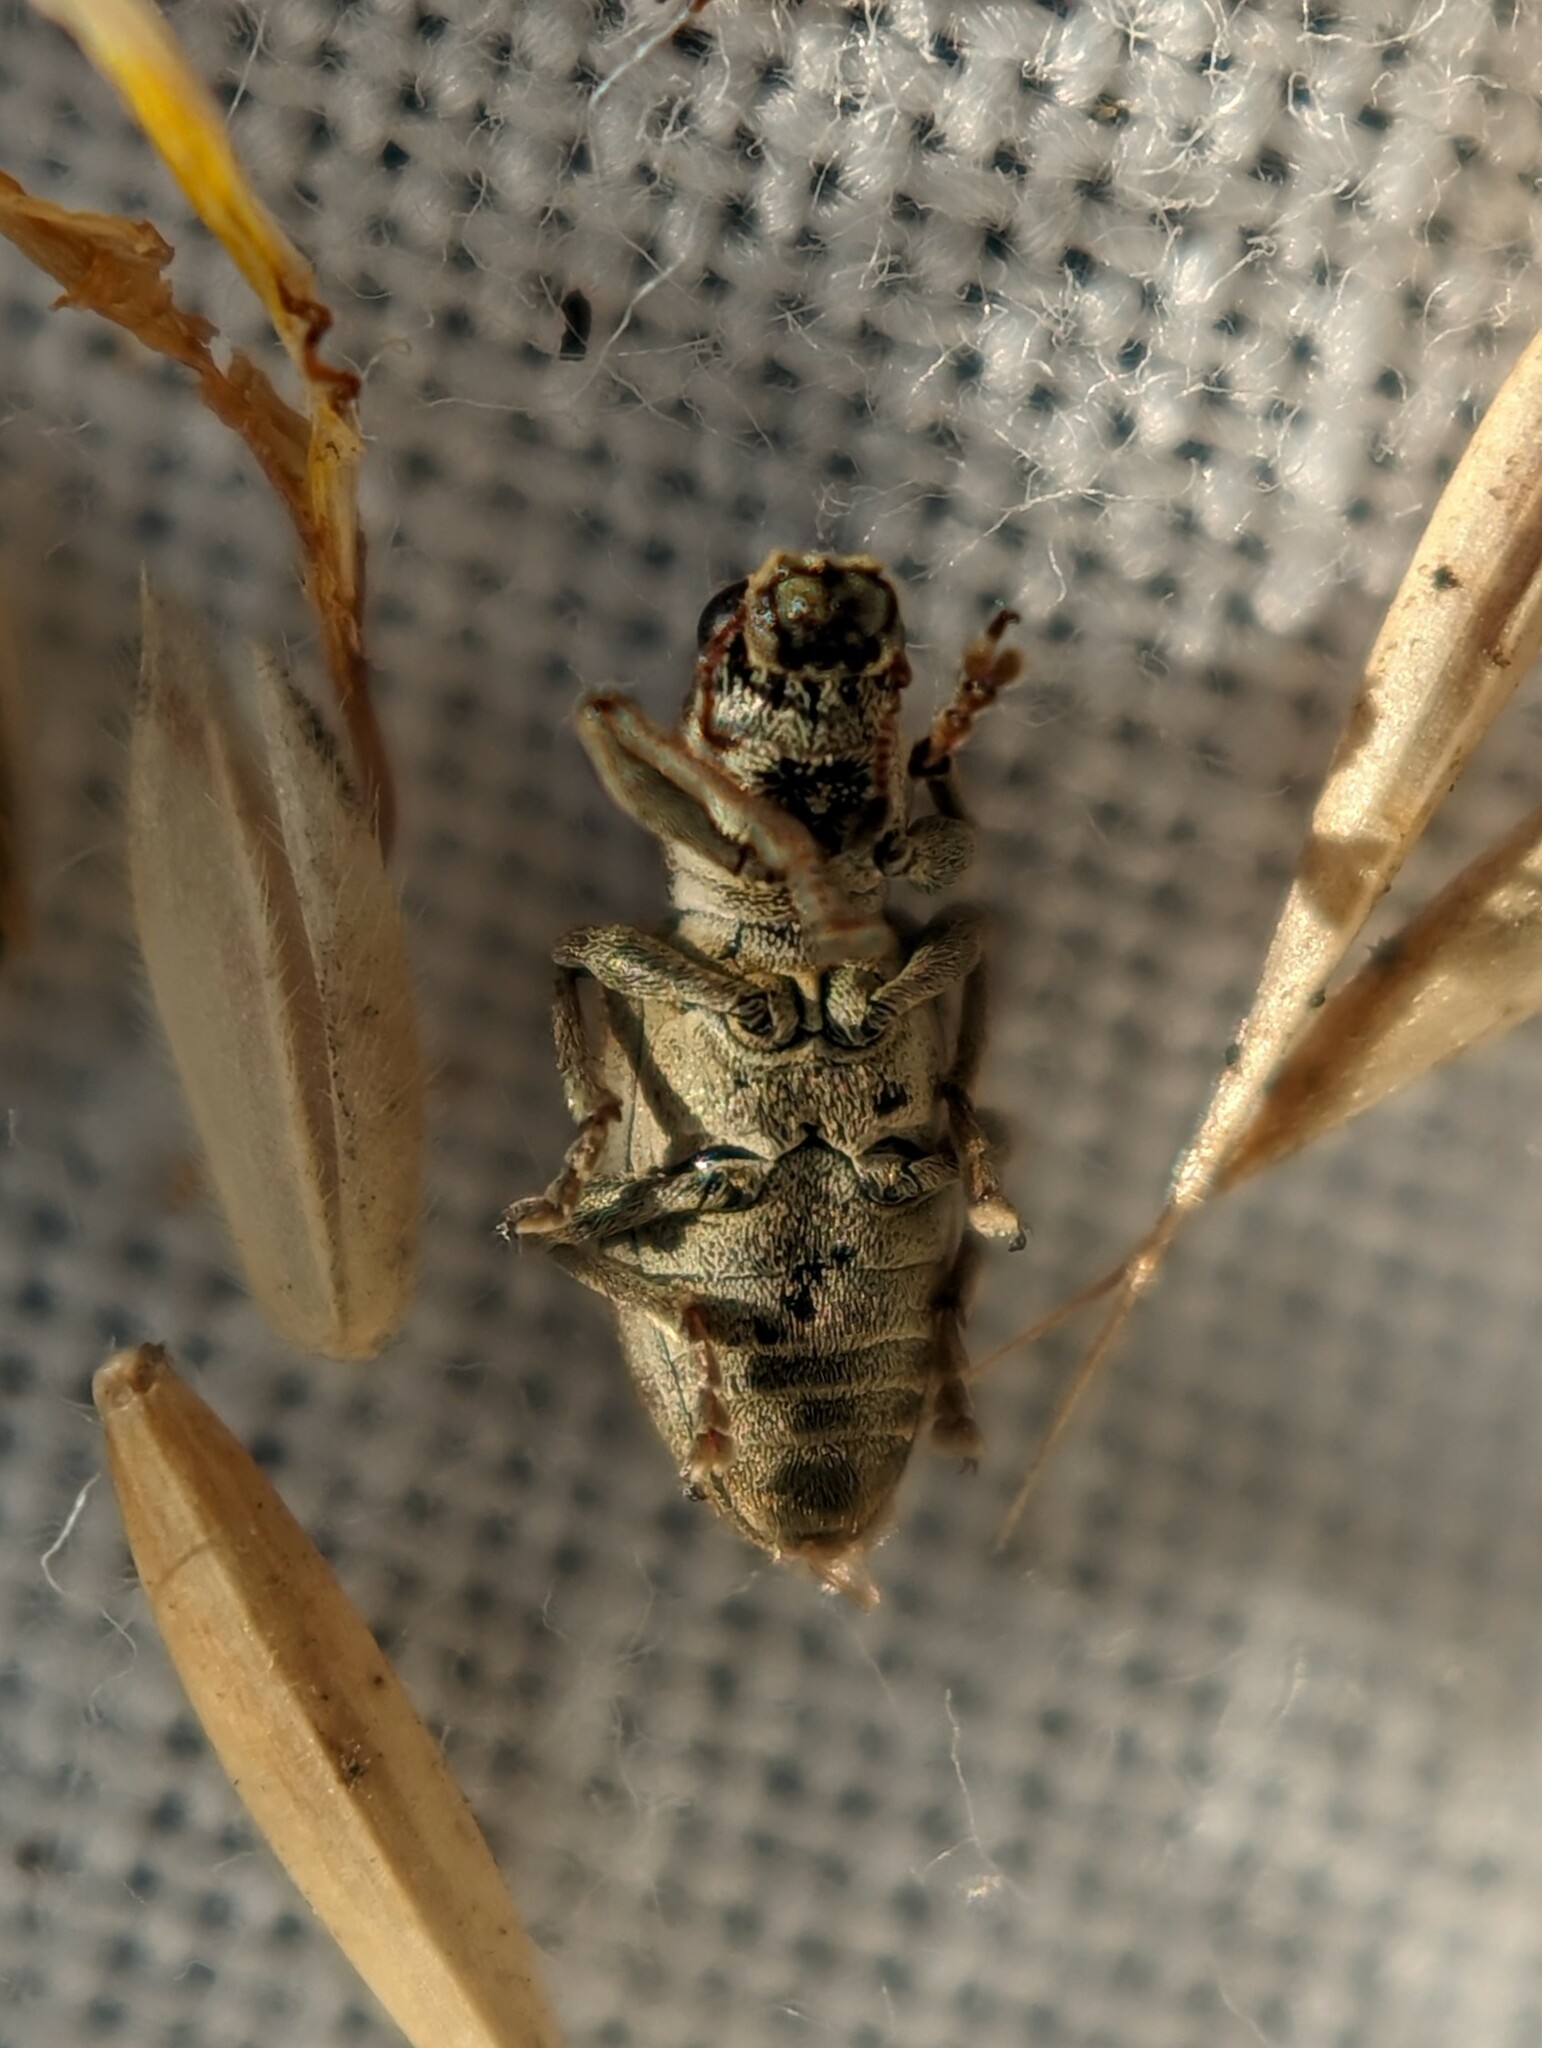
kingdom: Animalia
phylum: Arthropoda
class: Insecta
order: Coleoptera
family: Curculionidae
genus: Sitona
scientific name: Sitona obsoletus
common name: Weevil
